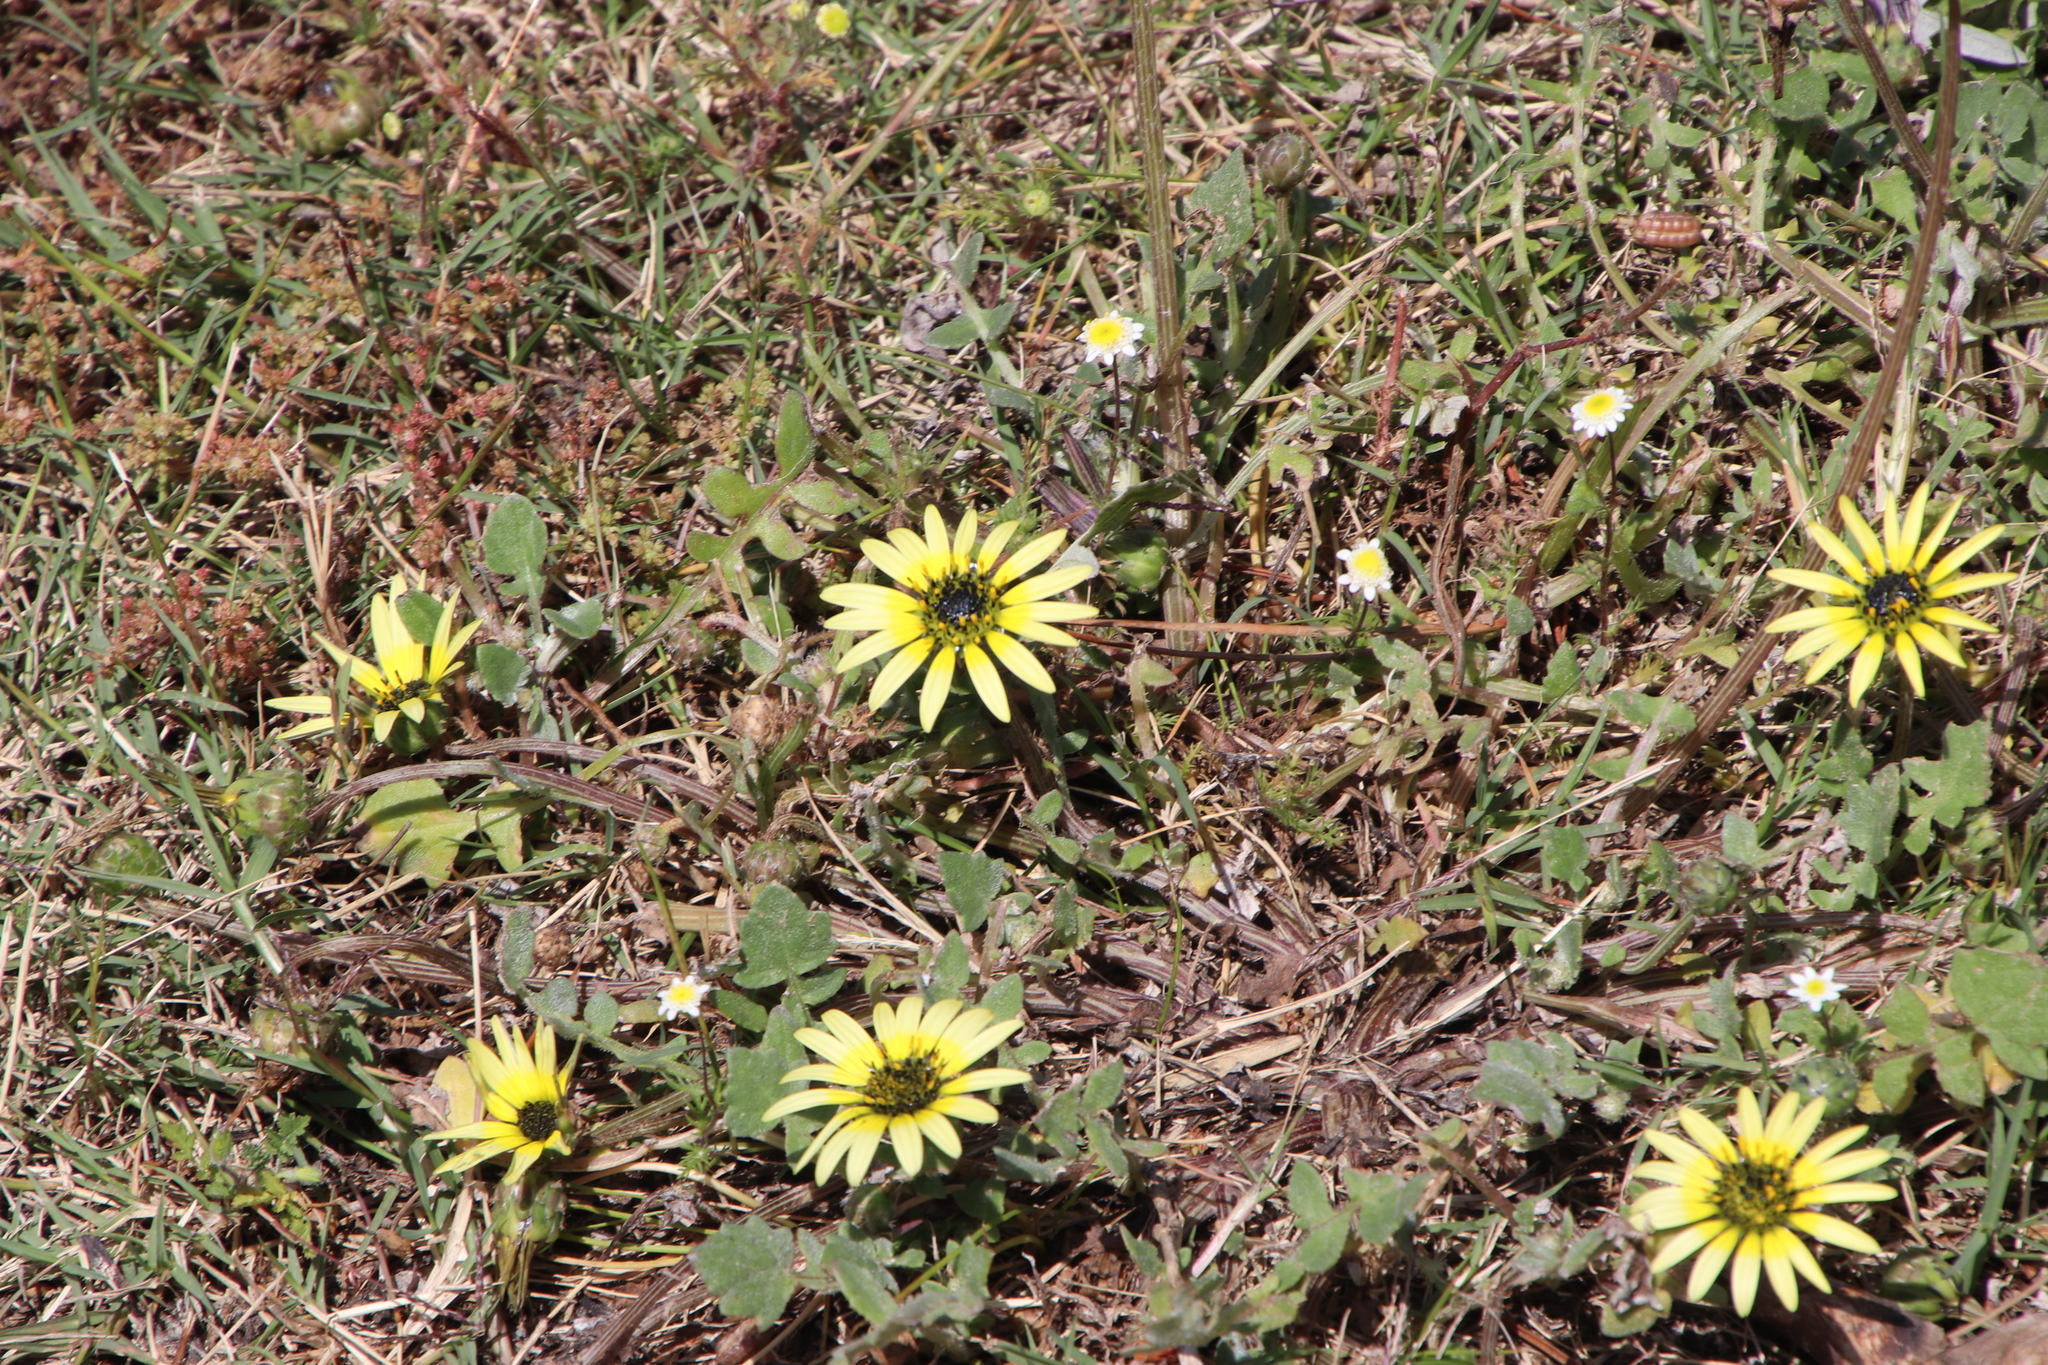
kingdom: Plantae
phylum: Tracheophyta
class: Magnoliopsida
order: Asterales
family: Asteraceae
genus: Arctotheca
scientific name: Arctotheca calendula
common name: Capeweed
